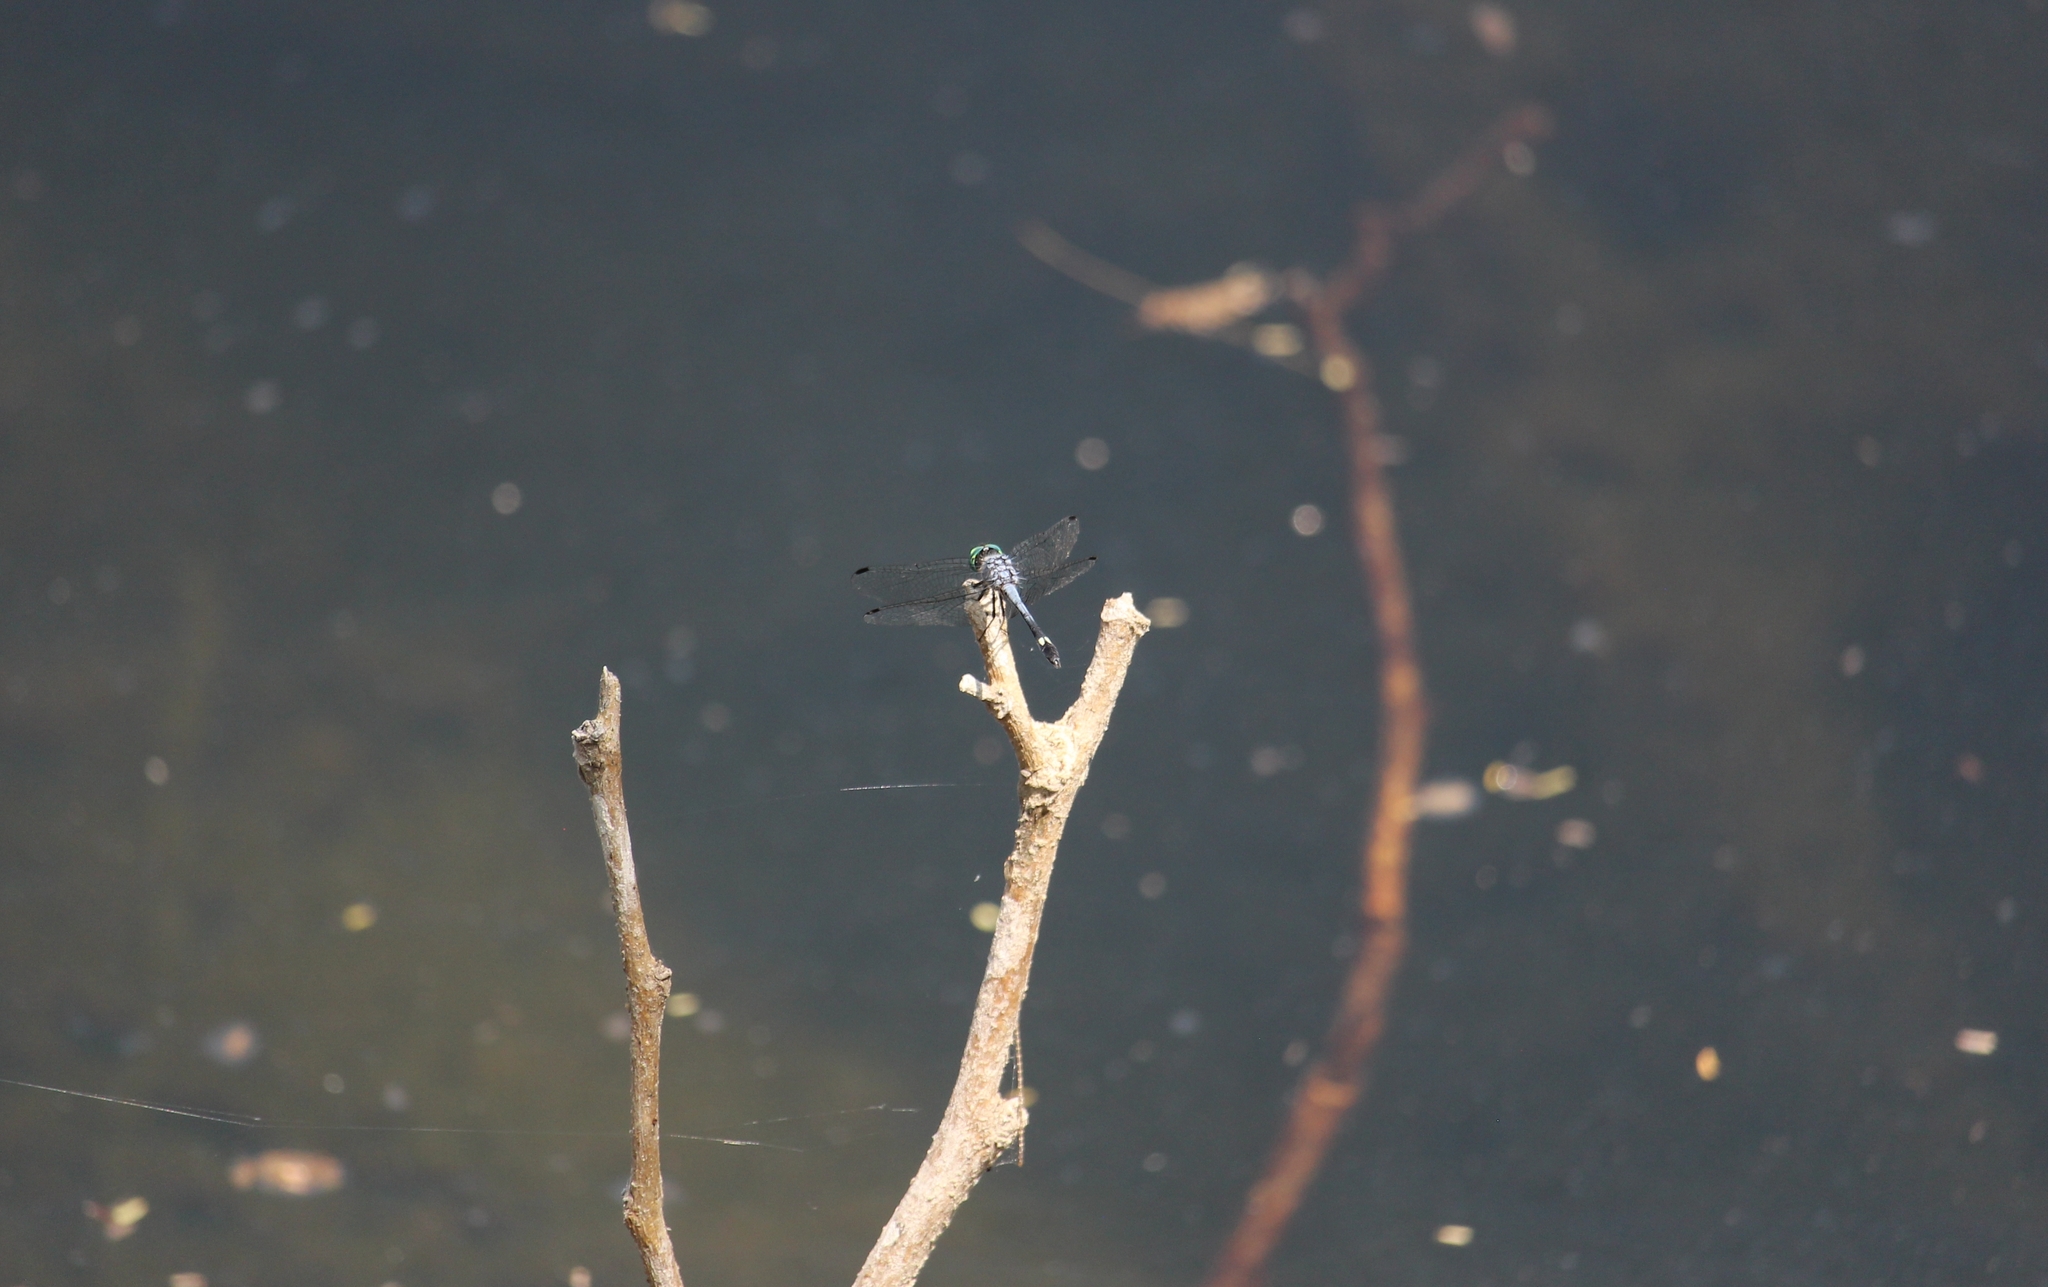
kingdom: Animalia
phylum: Arthropoda
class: Insecta
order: Odonata
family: Libellulidae
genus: Micrathyria
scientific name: Micrathyria aequalis
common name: Spot-tailed dasher
